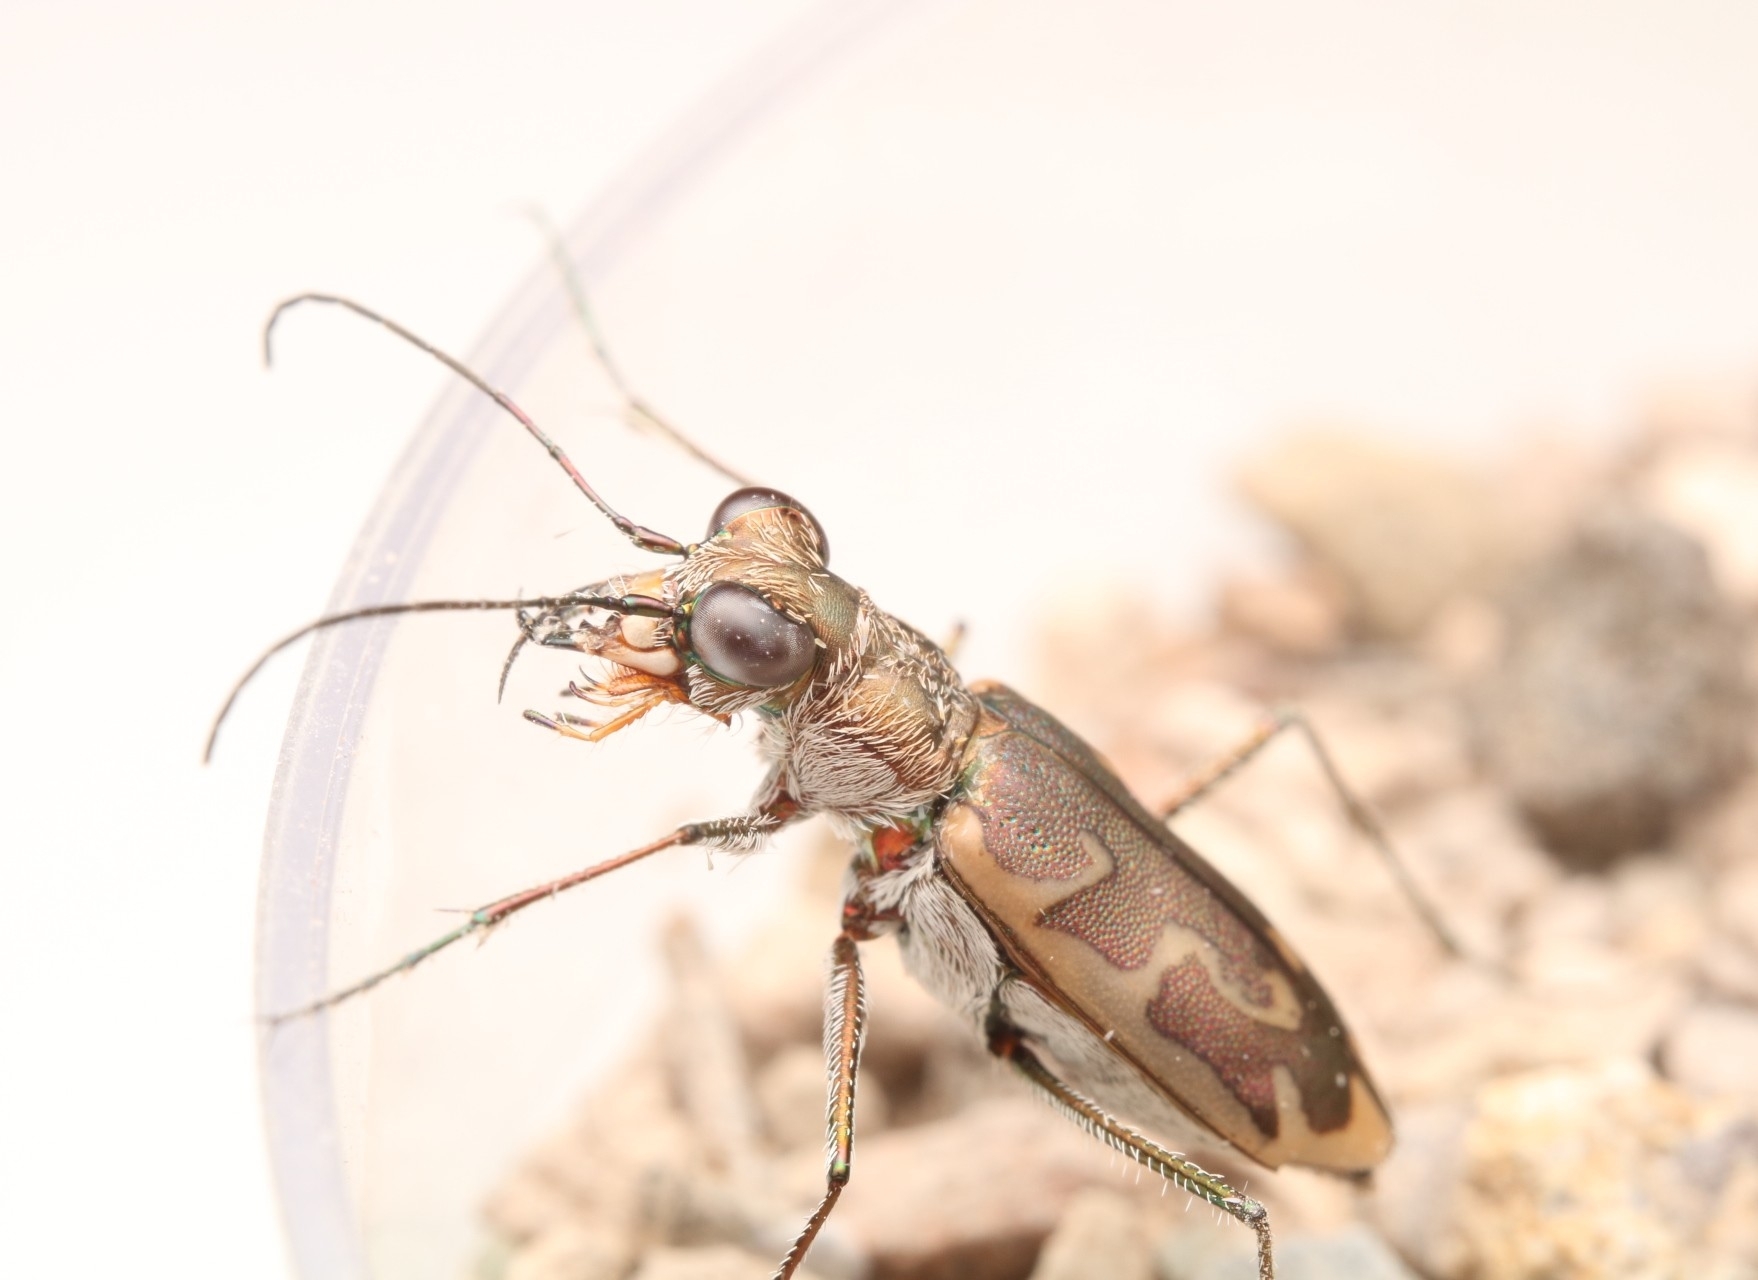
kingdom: Animalia
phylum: Arthropoda
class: Insecta
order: Coleoptera
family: Carabidae
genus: Ellipsoptera
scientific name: Ellipsoptera sperata
